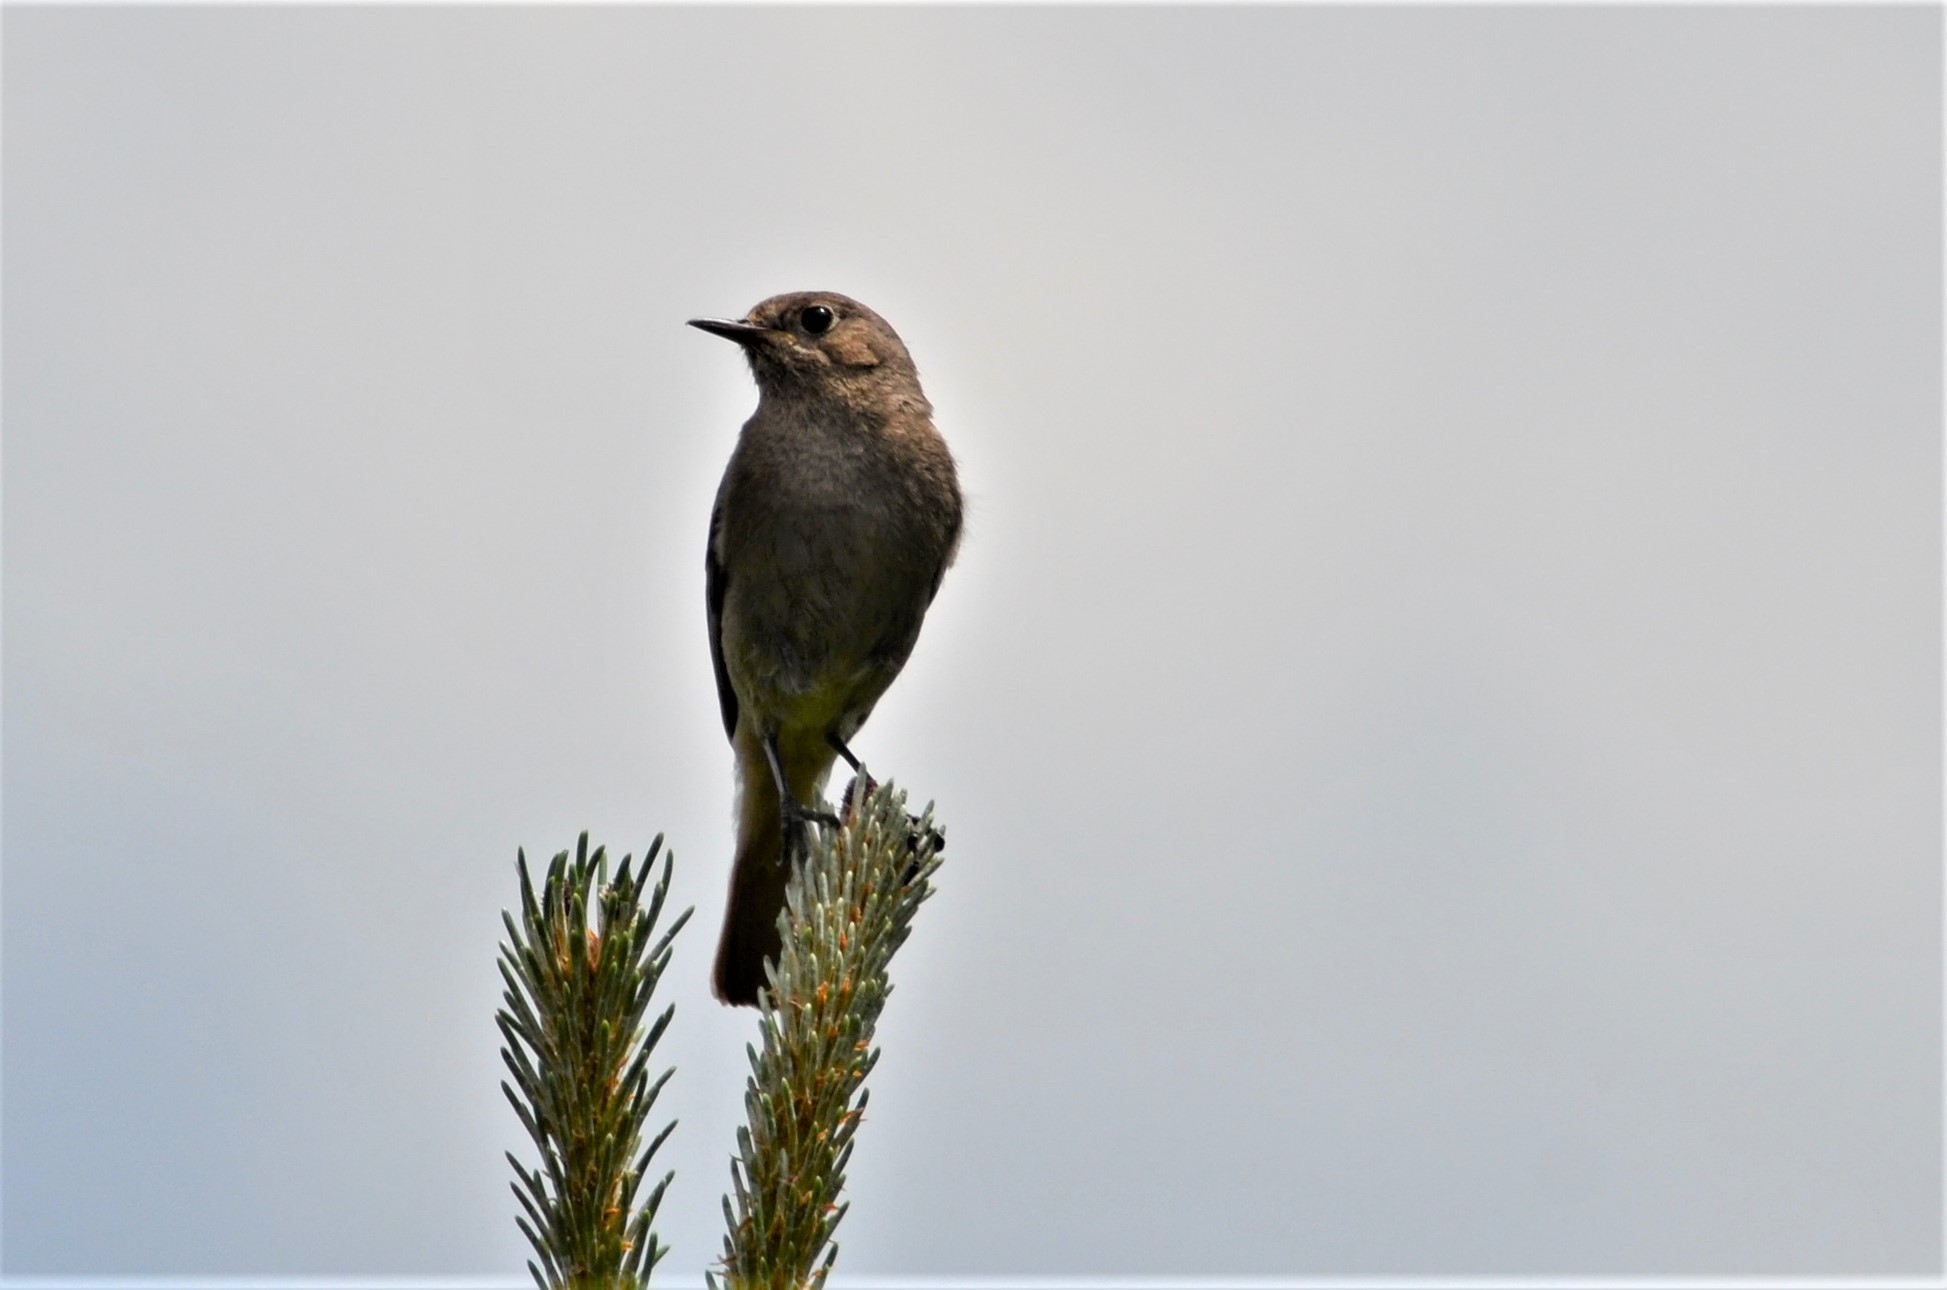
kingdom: Animalia
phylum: Chordata
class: Aves
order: Passeriformes
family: Muscicapidae
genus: Phoenicurus
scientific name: Phoenicurus ochruros
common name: Black redstart
